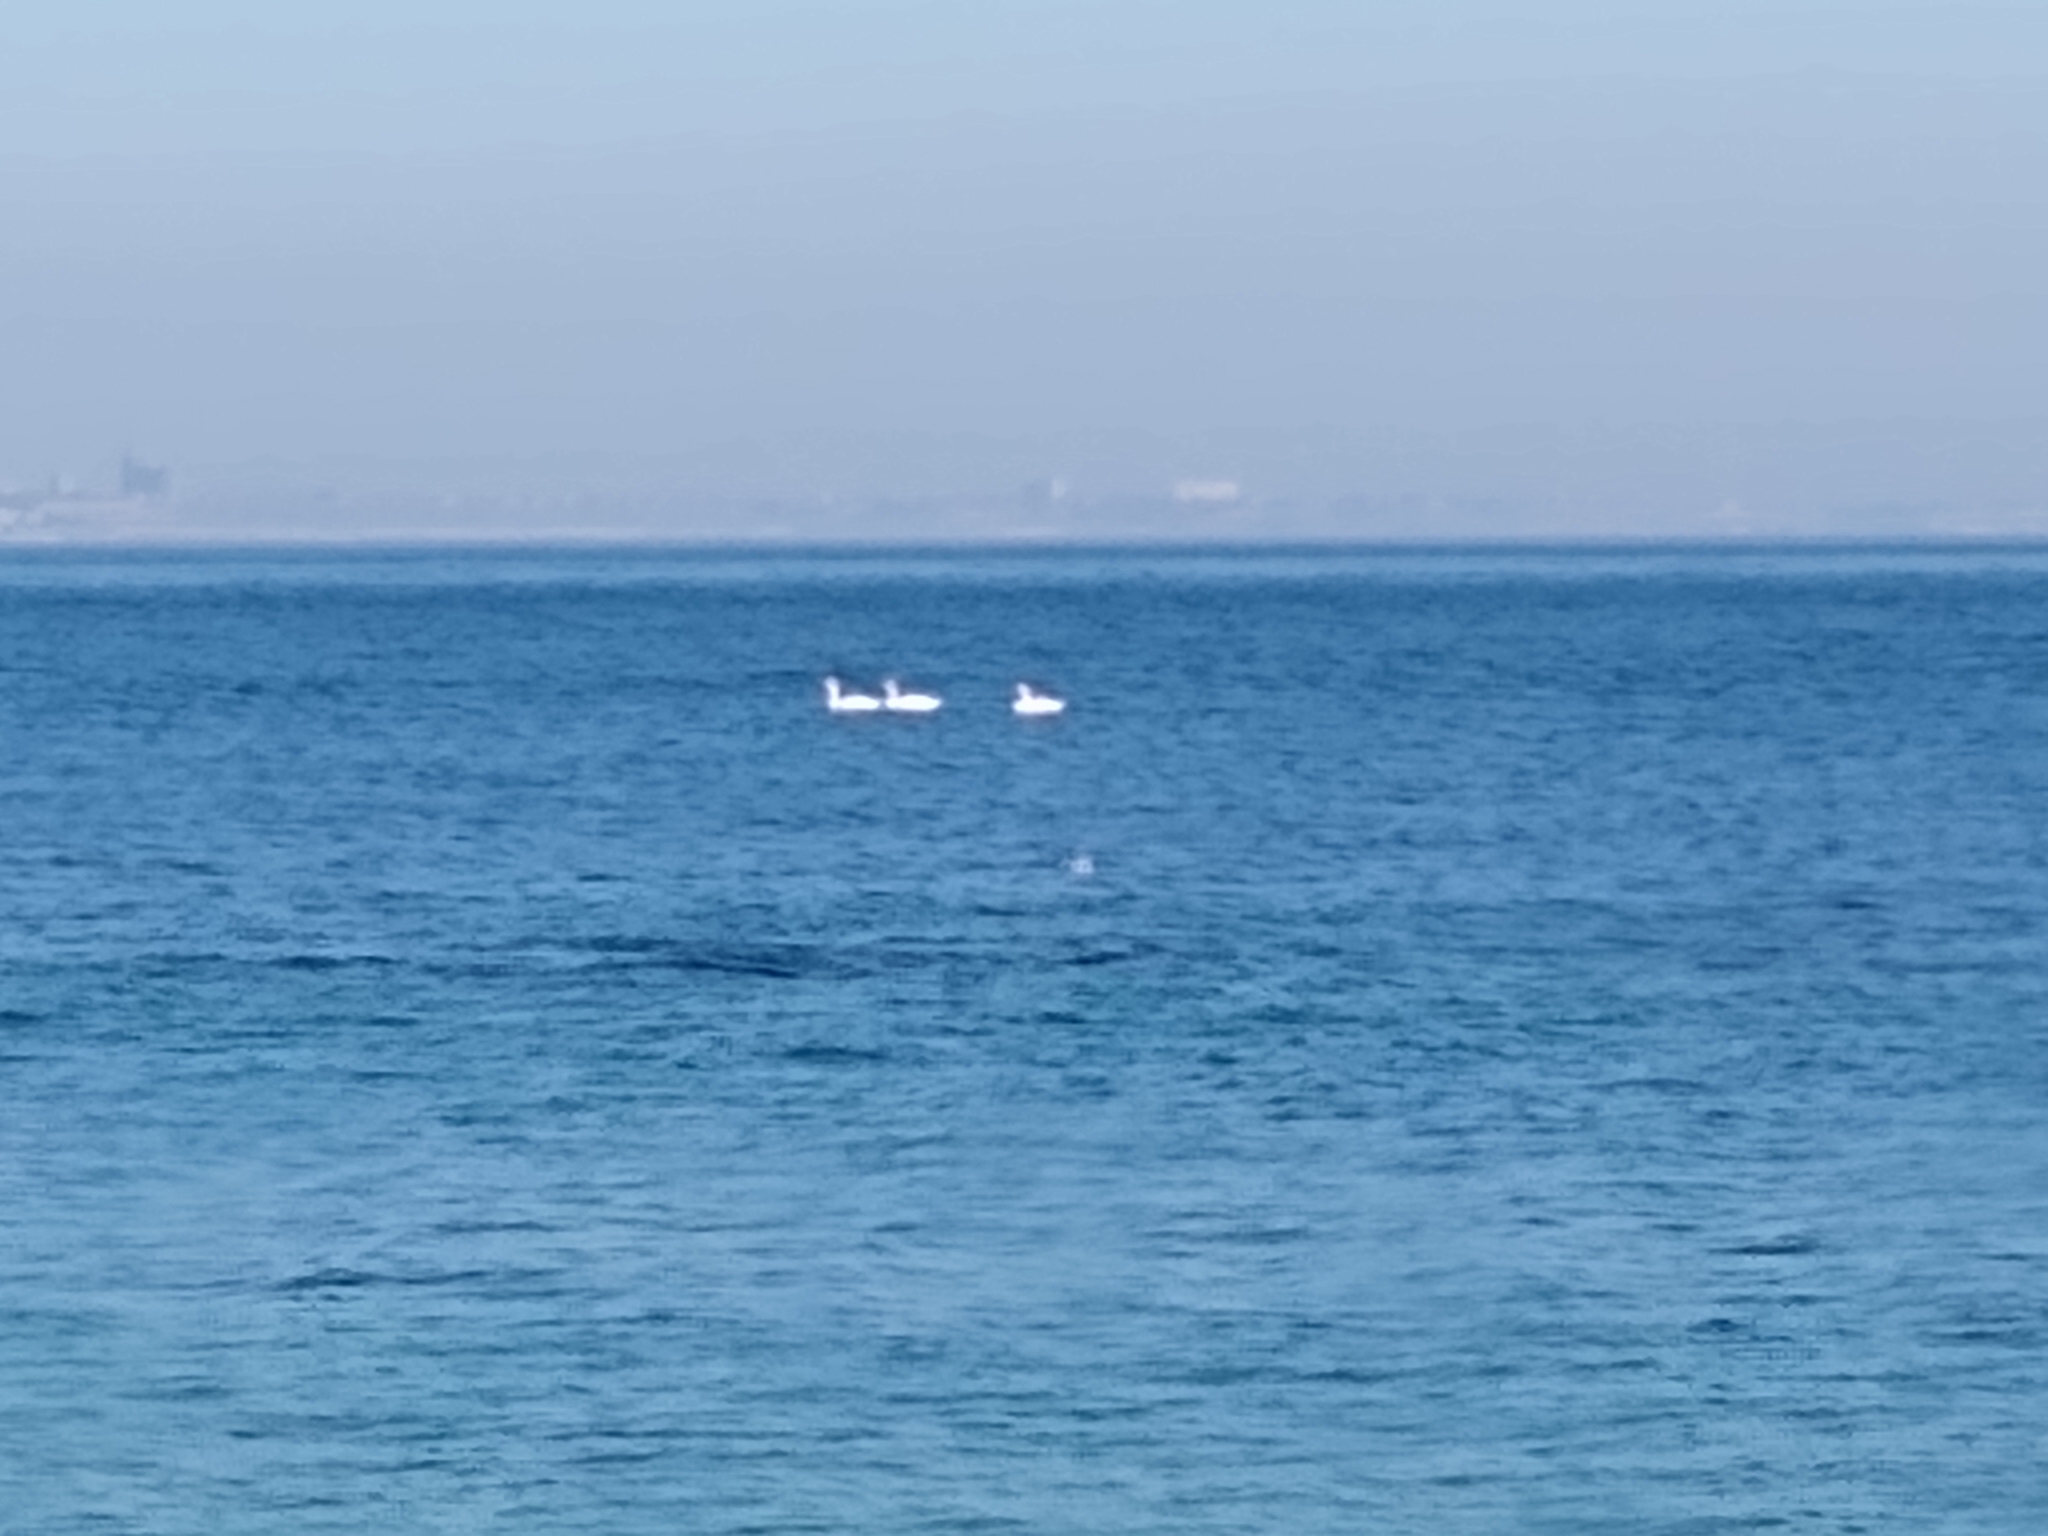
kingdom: Animalia
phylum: Chordata
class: Aves
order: Anseriformes
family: Anatidae
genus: Cygnus
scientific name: Cygnus
